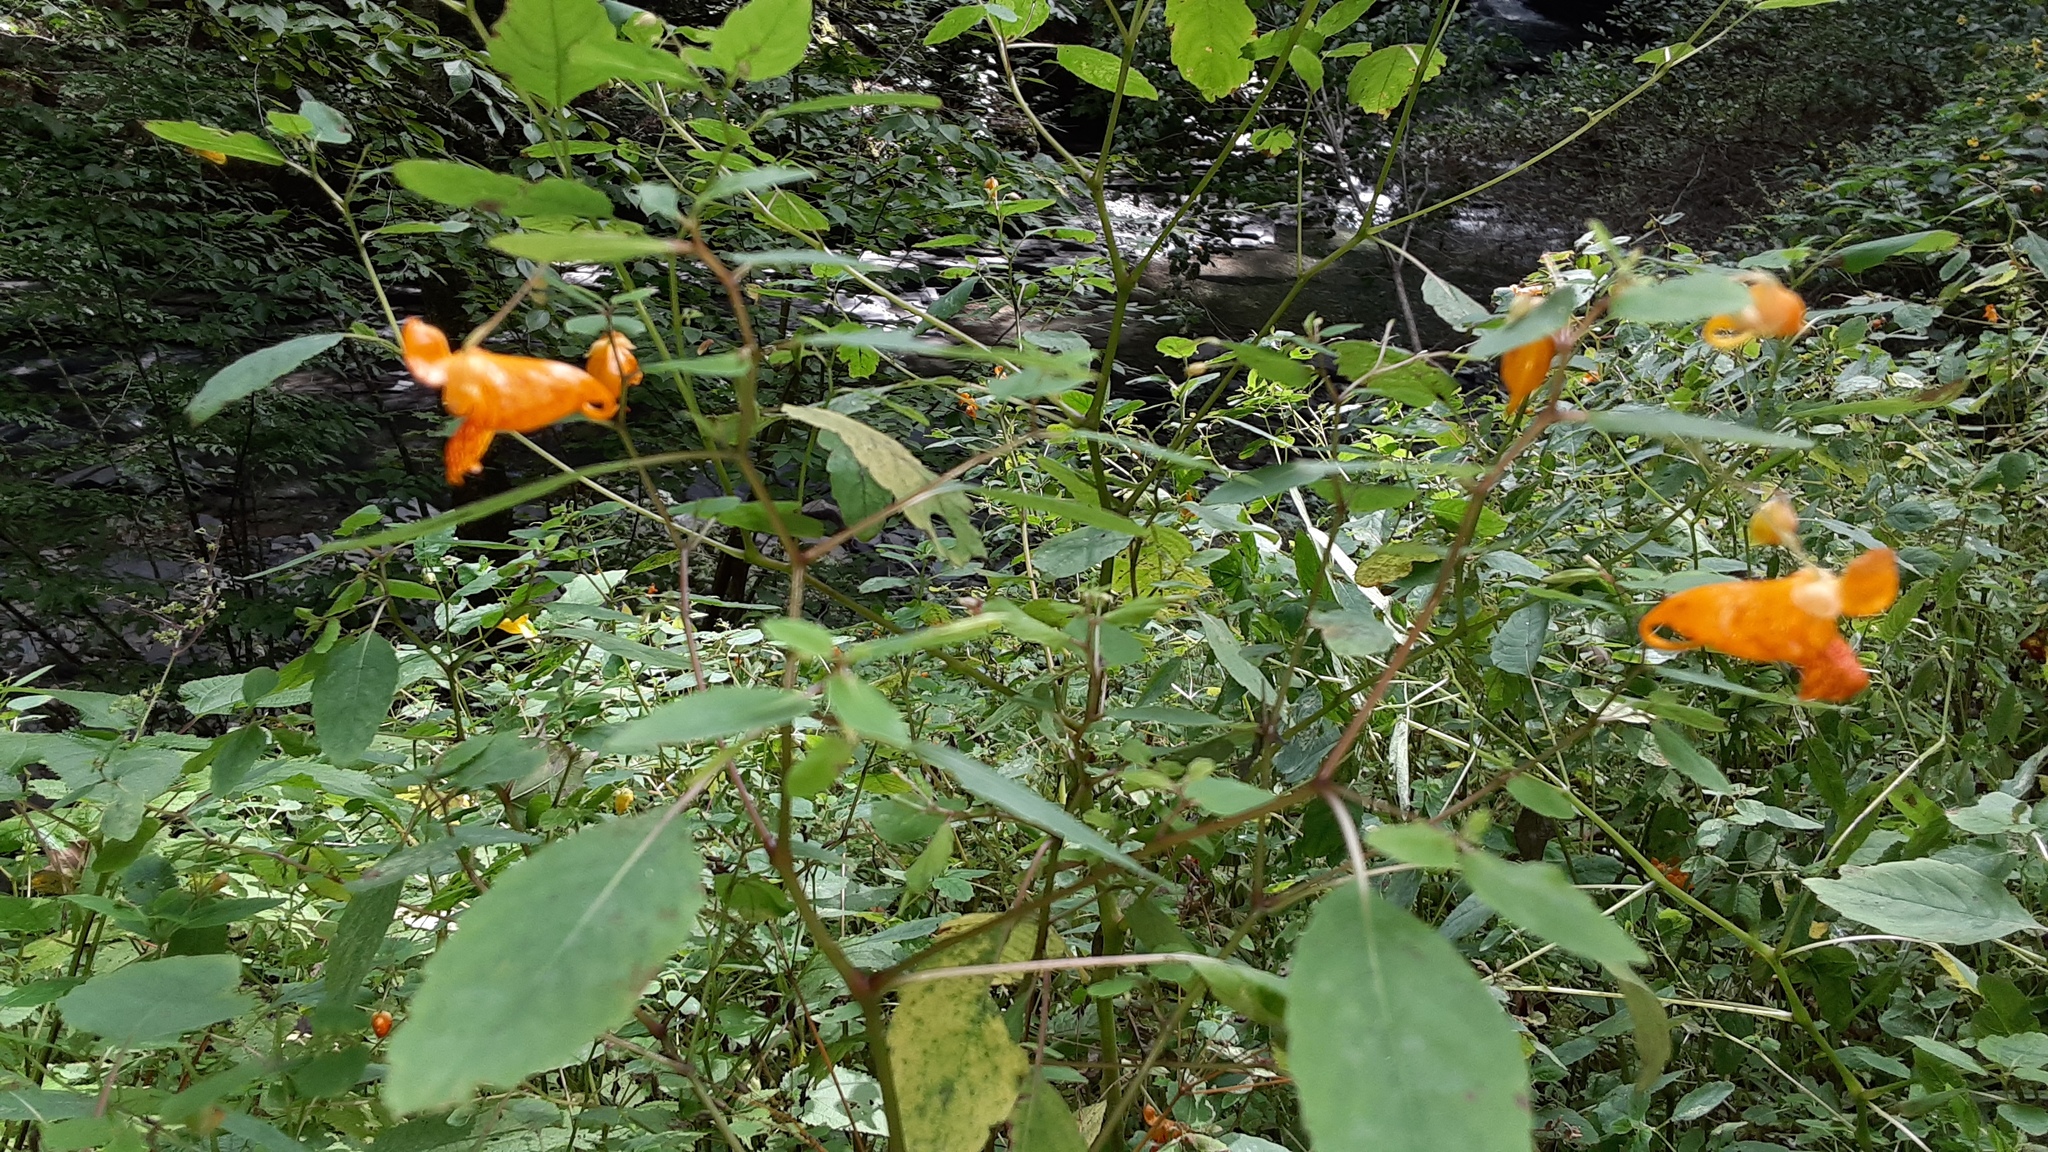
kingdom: Plantae
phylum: Tracheophyta
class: Magnoliopsida
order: Ericales
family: Balsaminaceae
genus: Impatiens
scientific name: Impatiens capensis
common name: Orange balsam
